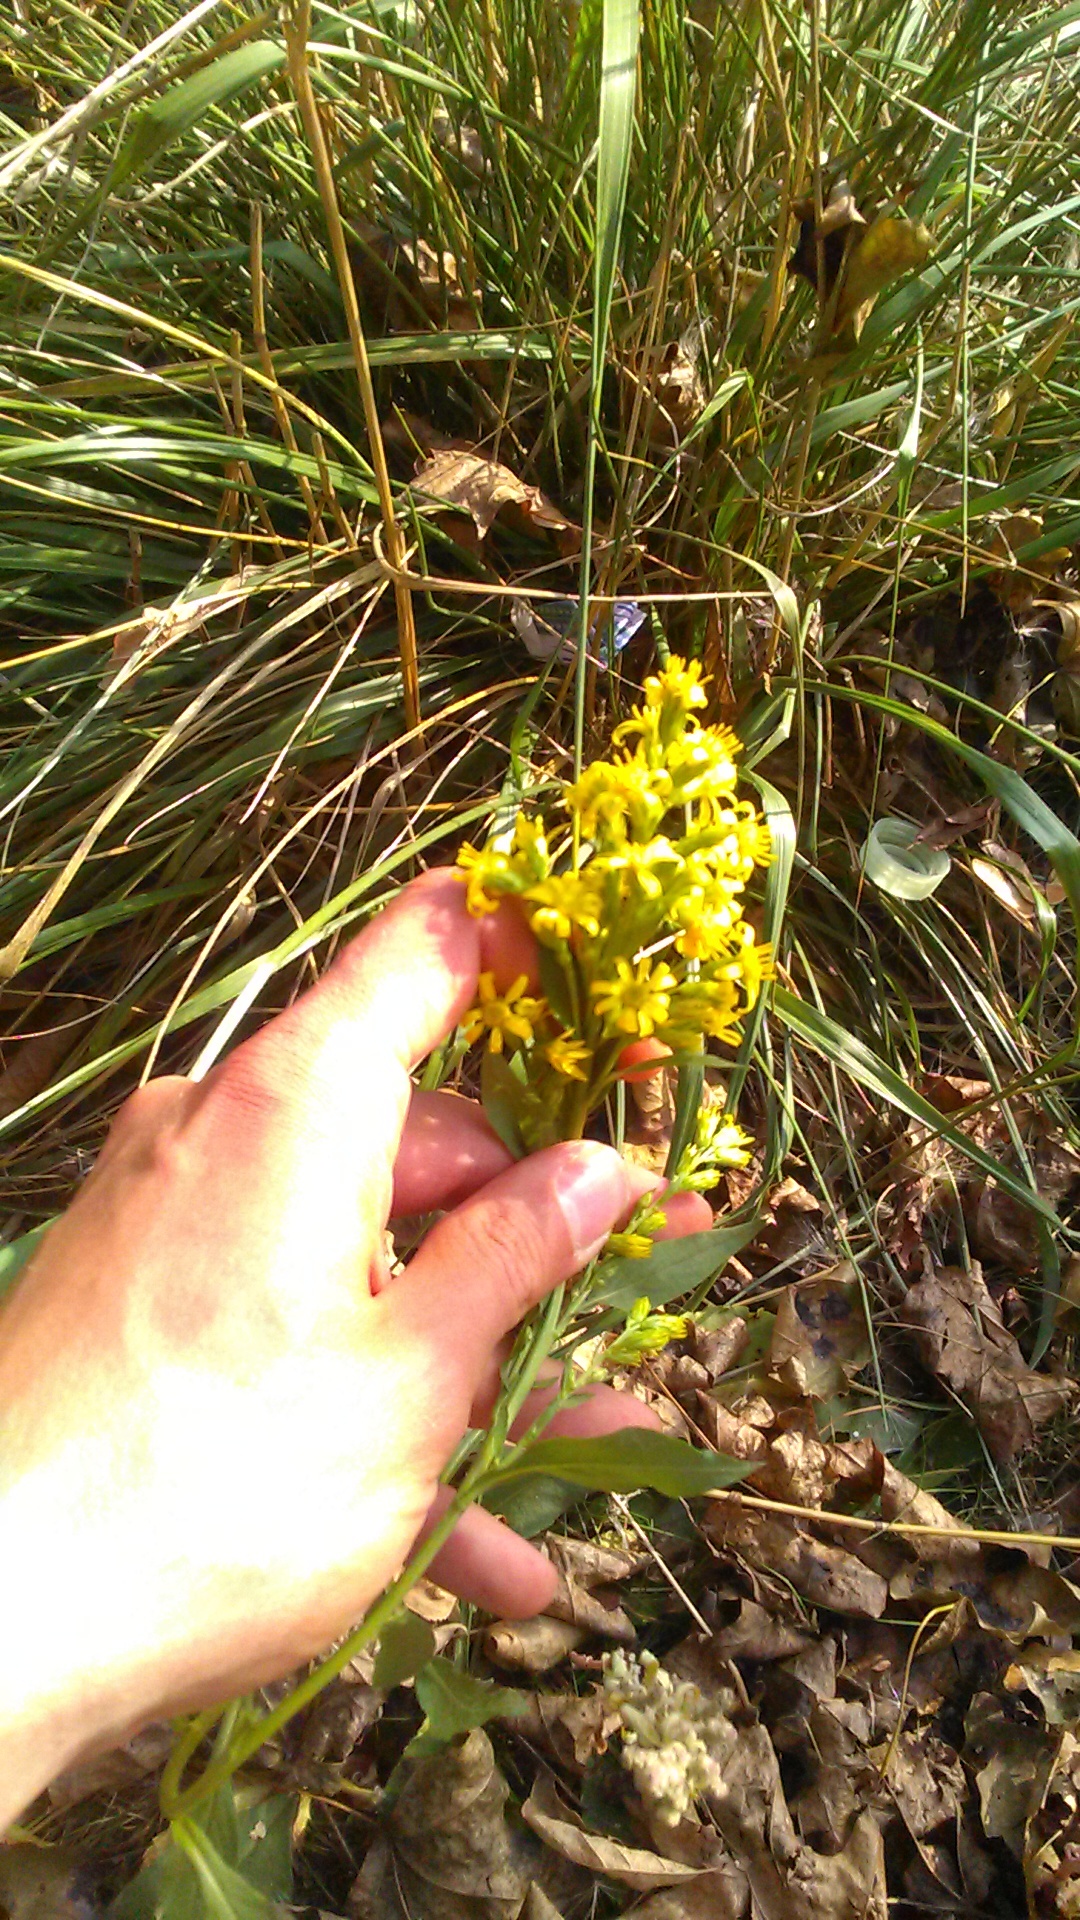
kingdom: Plantae
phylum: Tracheophyta
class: Magnoliopsida
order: Asterales
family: Asteraceae
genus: Solidago
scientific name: Solidago virgaurea
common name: Goldenrod
